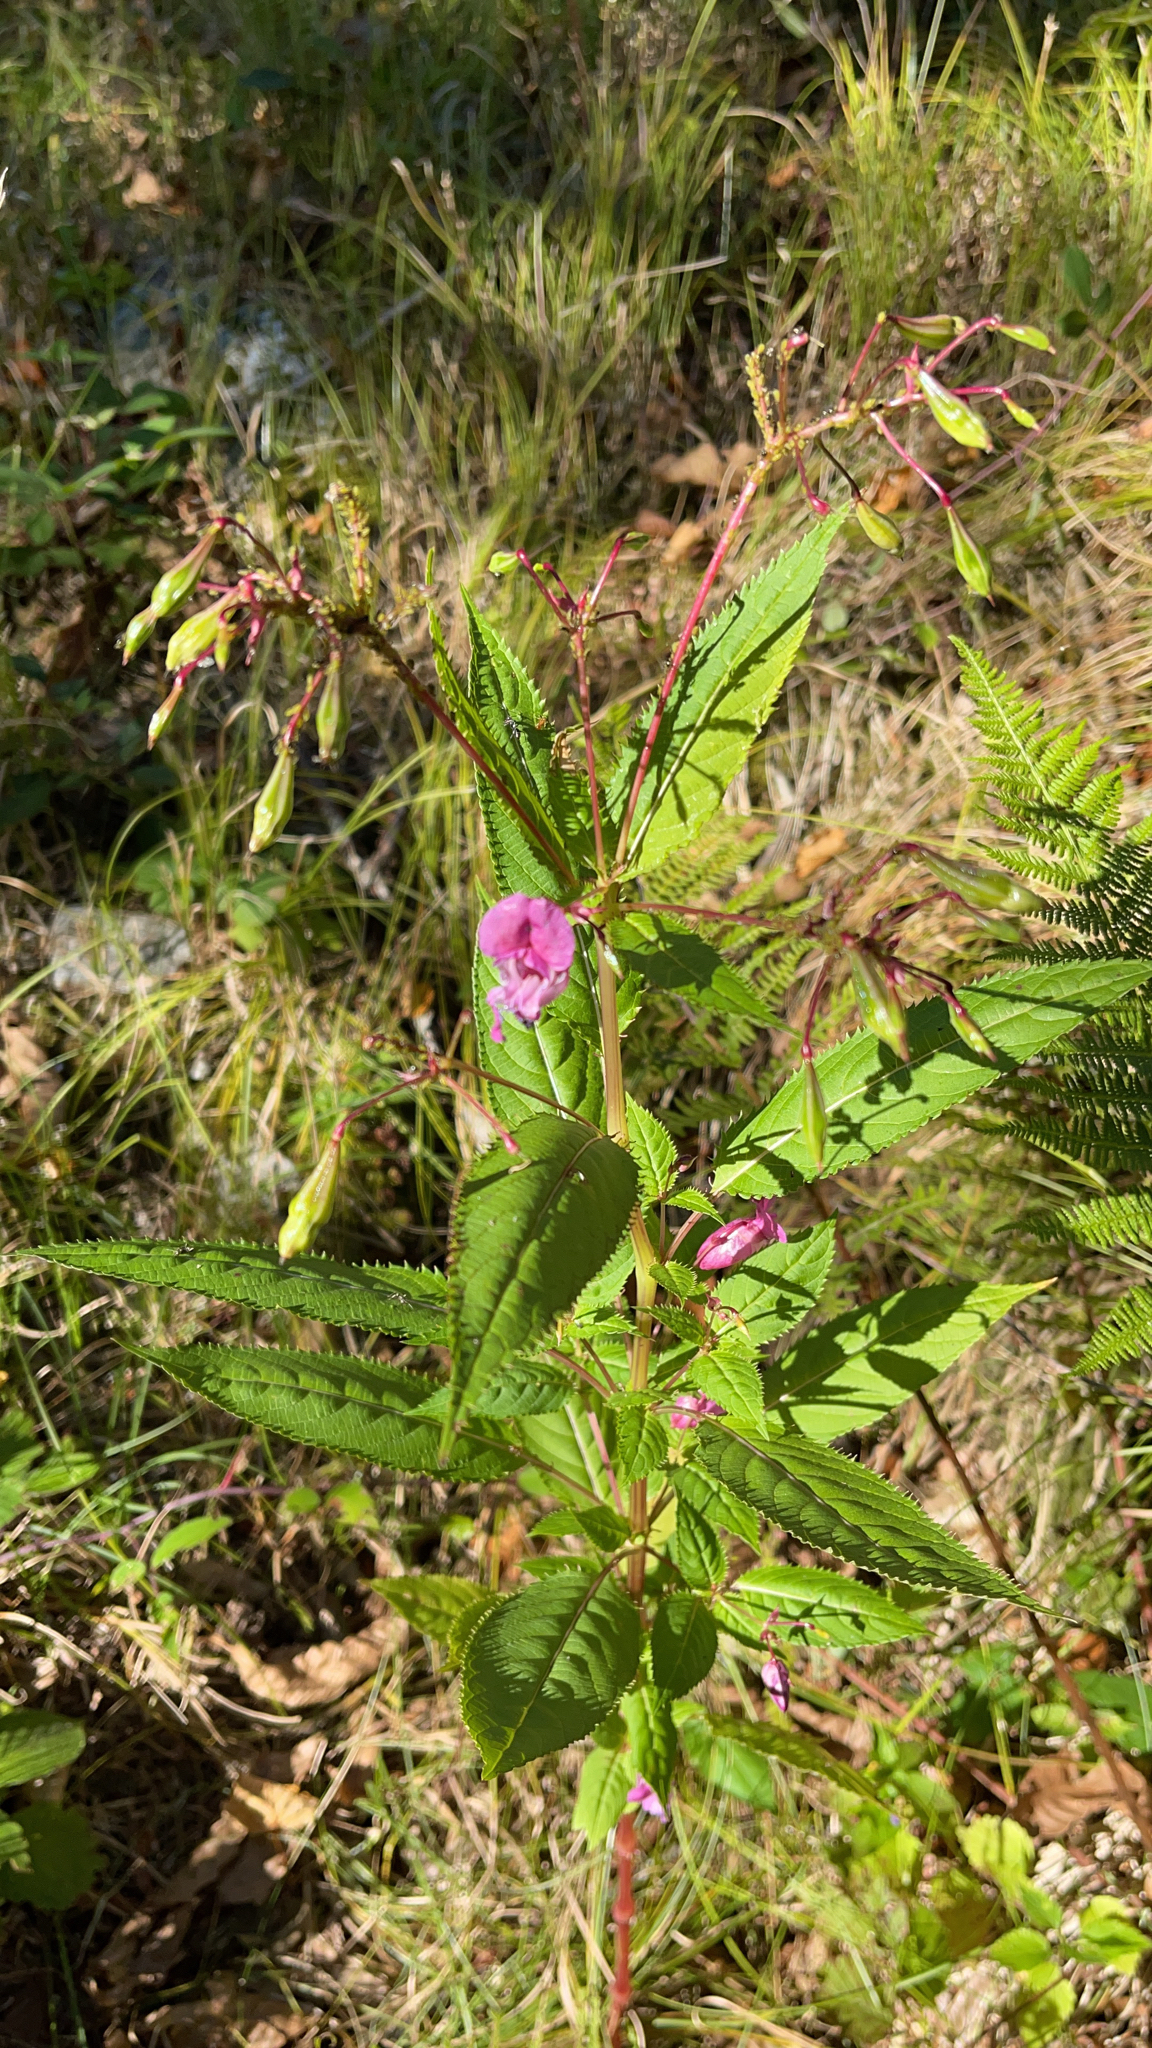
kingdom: Plantae
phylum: Tracheophyta
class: Magnoliopsida
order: Ericales
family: Balsaminaceae
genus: Impatiens
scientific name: Impatiens glandulifera
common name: Himalayan balsam
